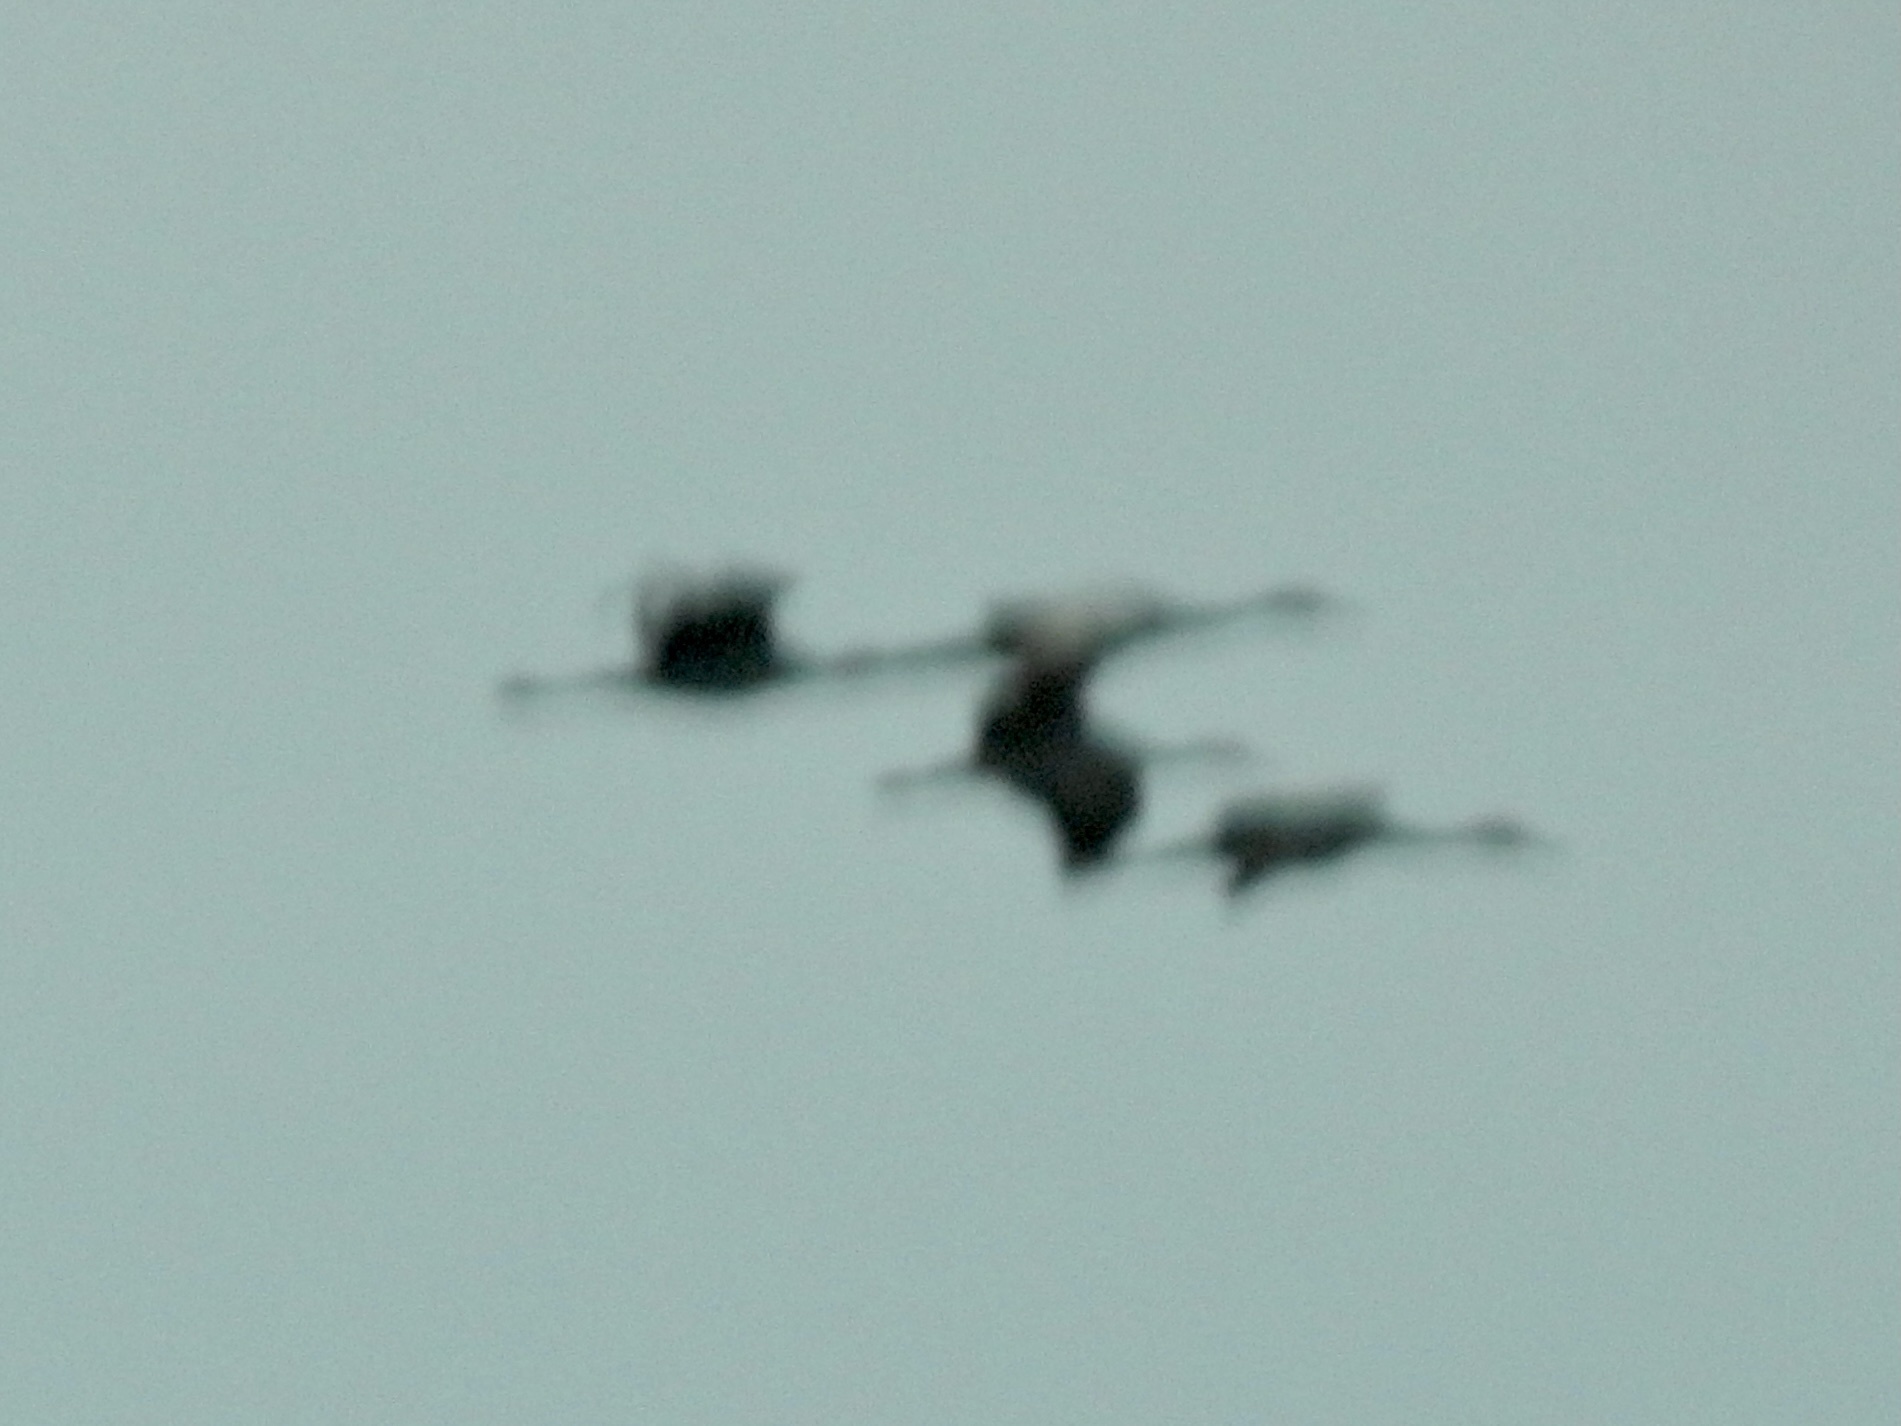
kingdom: Animalia
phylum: Chordata
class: Aves
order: Gruiformes
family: Gruidae
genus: Grus
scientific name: Grus canadensis
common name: Sandhill crane
